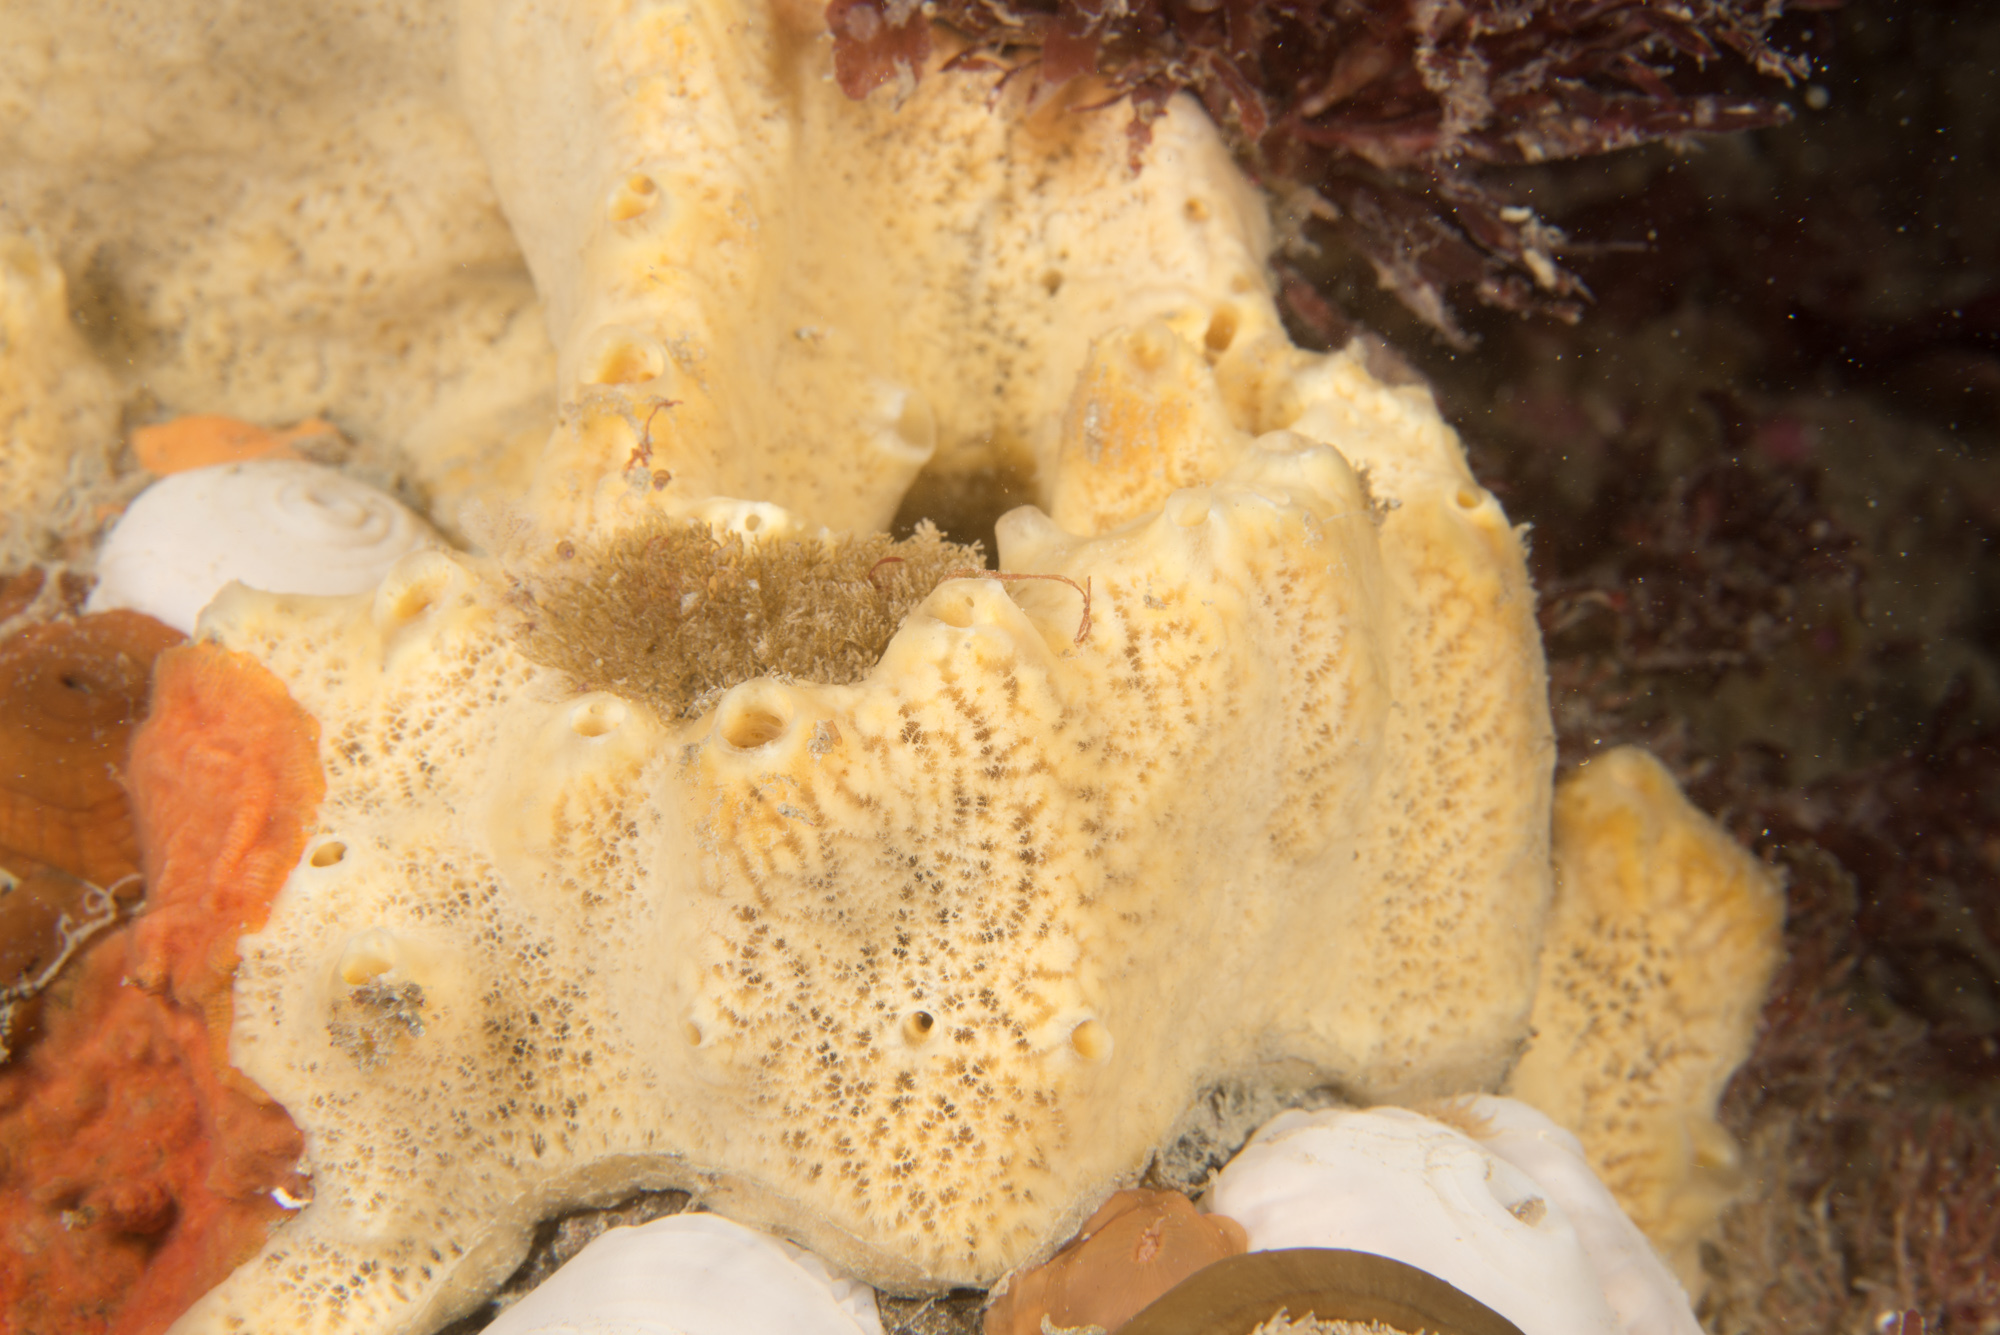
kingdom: Animalia
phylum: Porifera
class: Demospongiae
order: Poecilosclerida
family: Myxillidae
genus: Myxilla
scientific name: Myxilla incrustans
